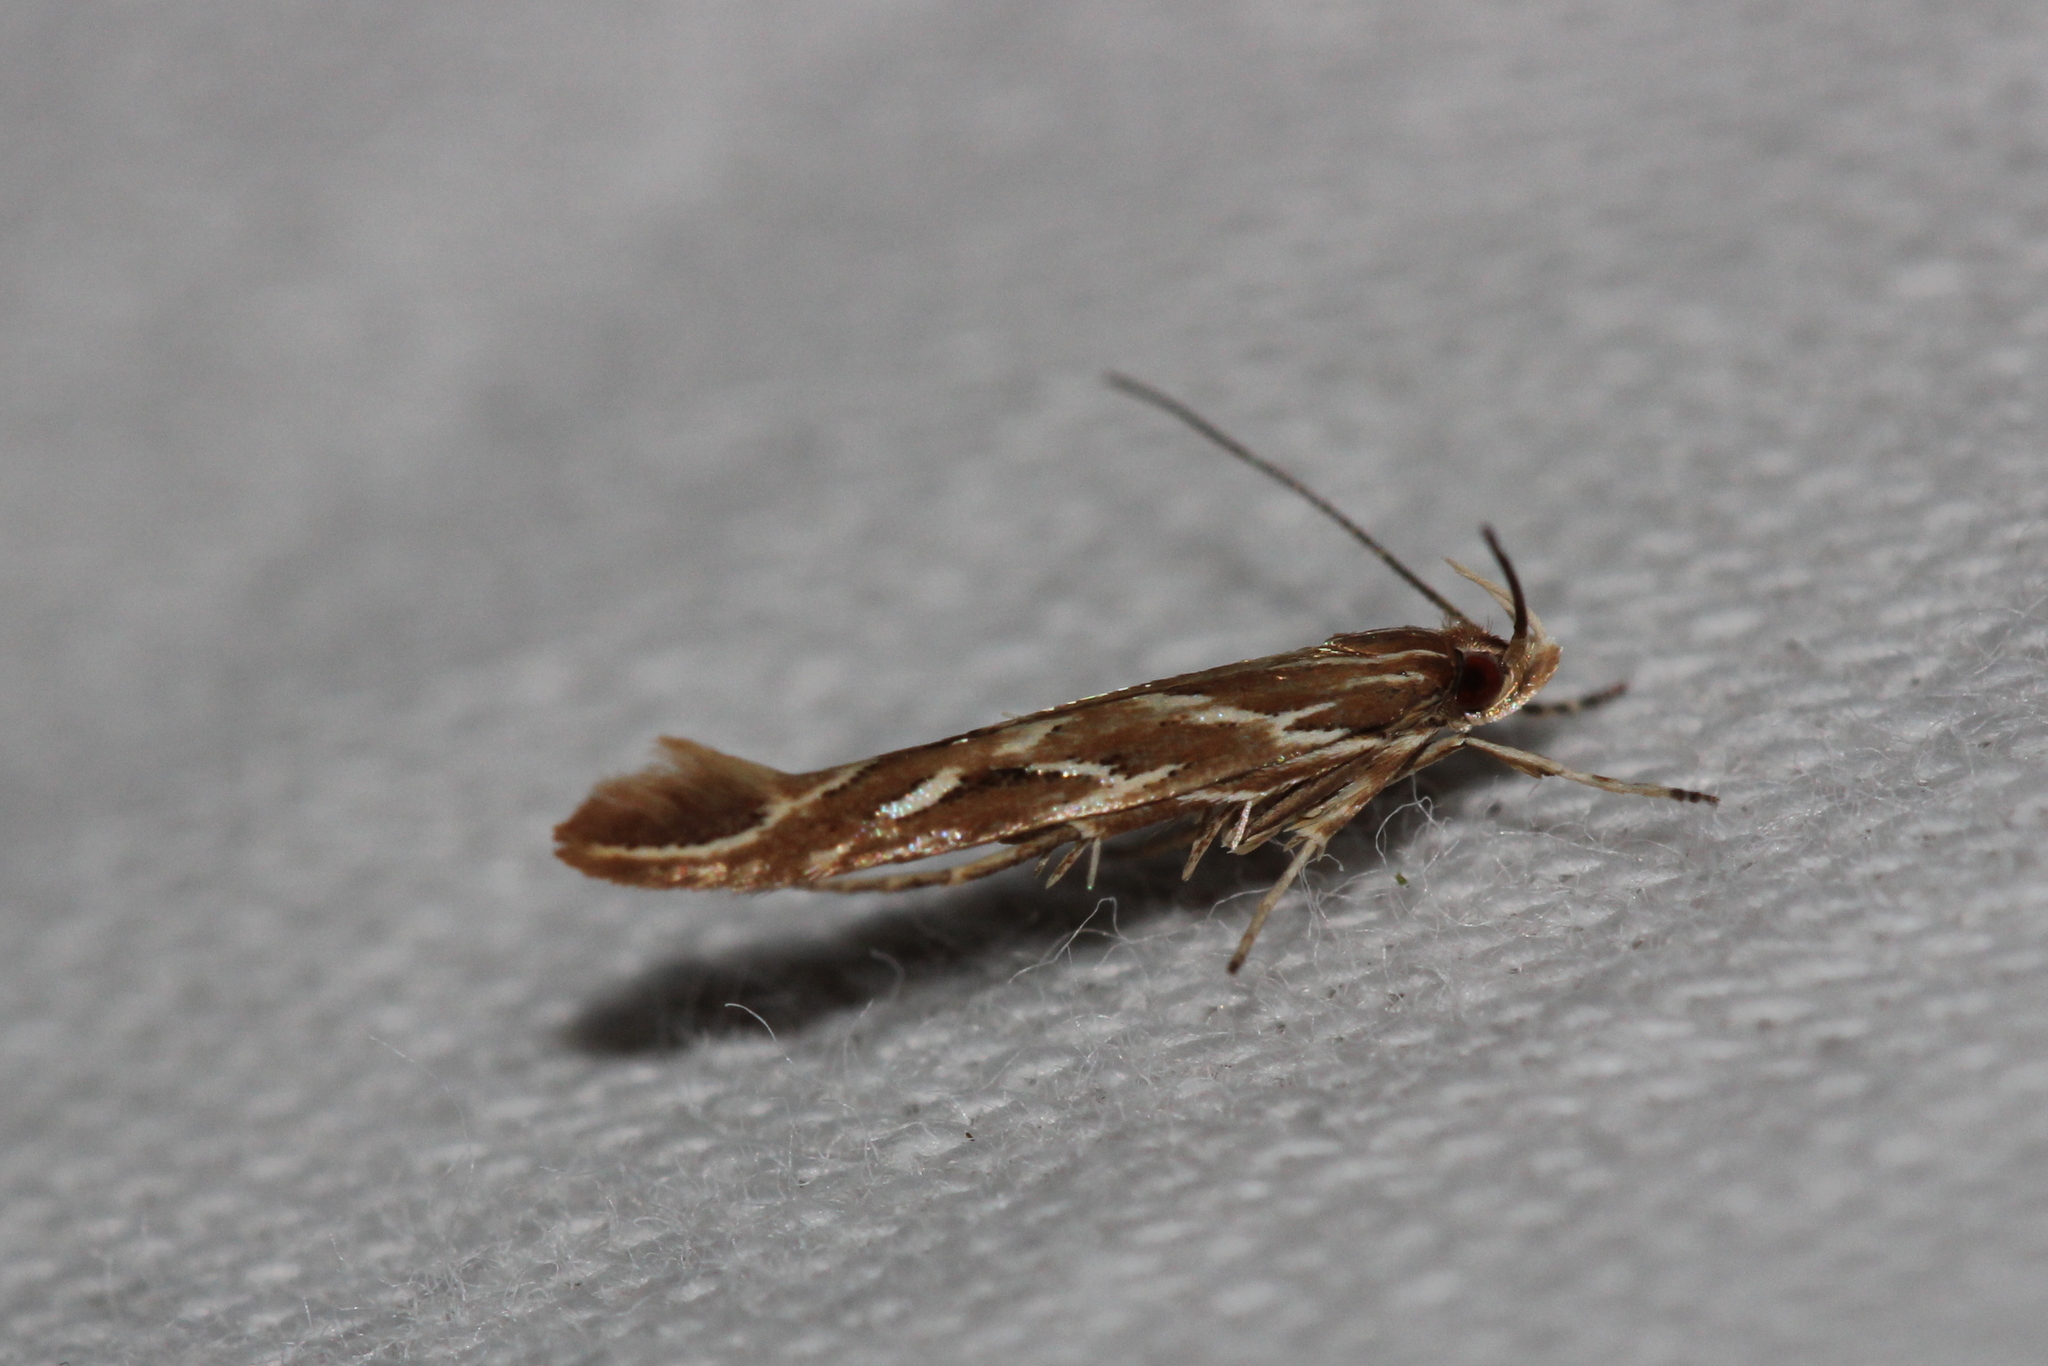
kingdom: Animalia
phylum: Arthropoda
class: Insecta
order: Lepidoptera
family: Cosmopterigidae
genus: Pyroderces
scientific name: Pyroderces argyrogrammos
